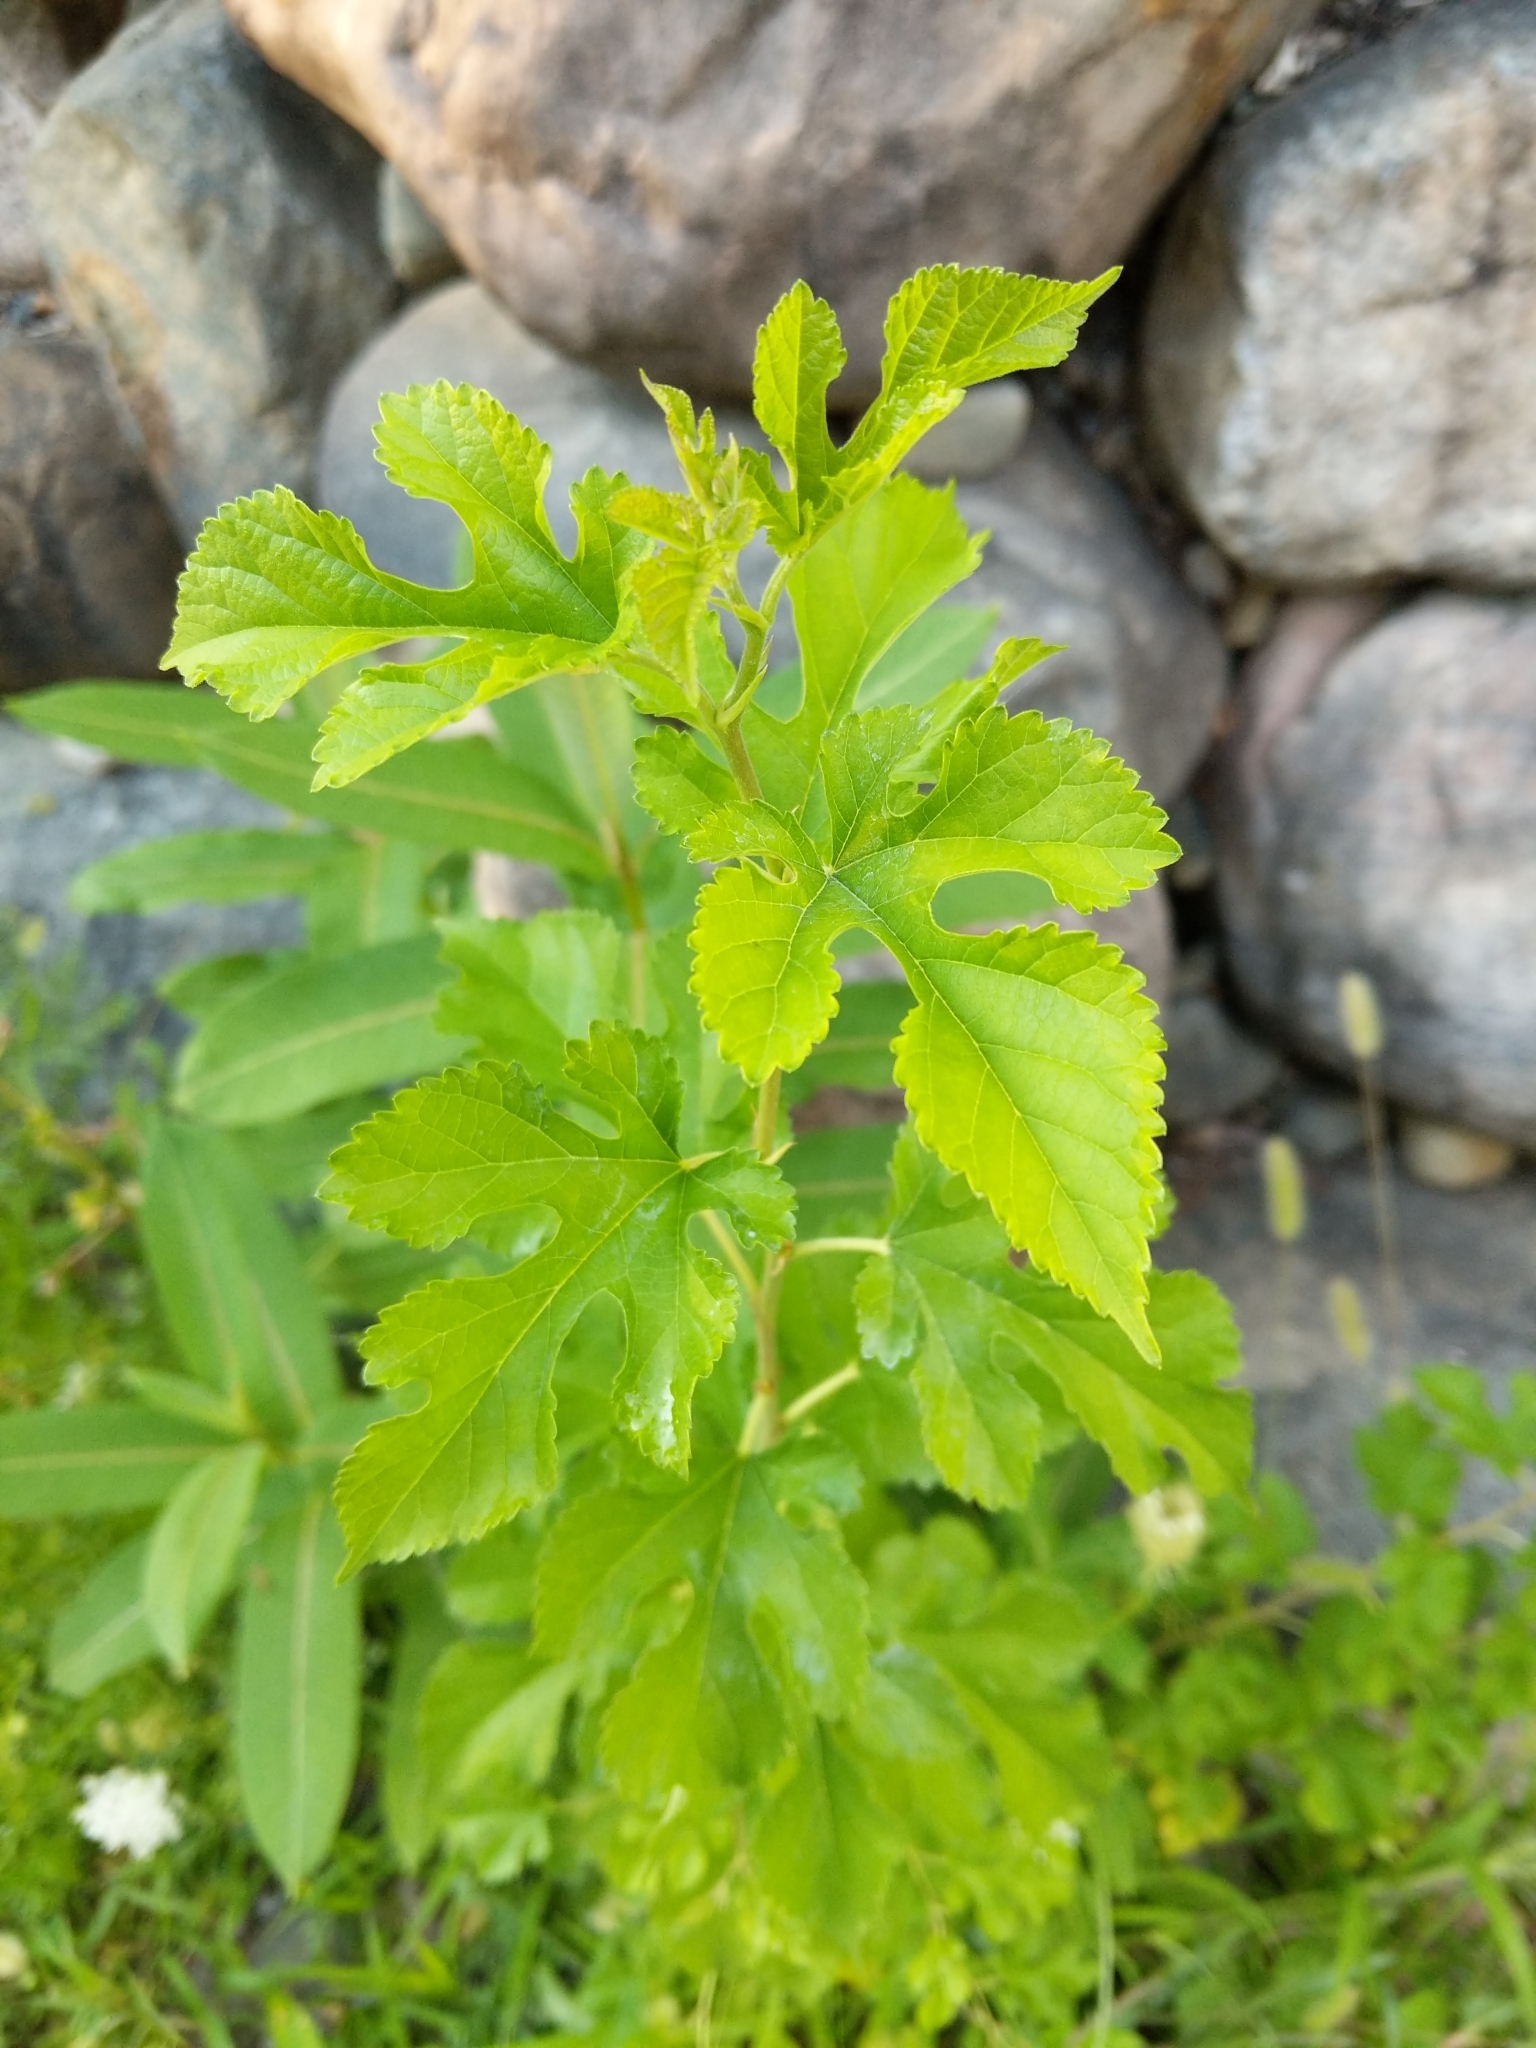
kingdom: Plantae
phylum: Tracheophyta
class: Magnoliopsida
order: Rosales
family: Moraceae
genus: Morus
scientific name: Morus alba
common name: White mulberry
